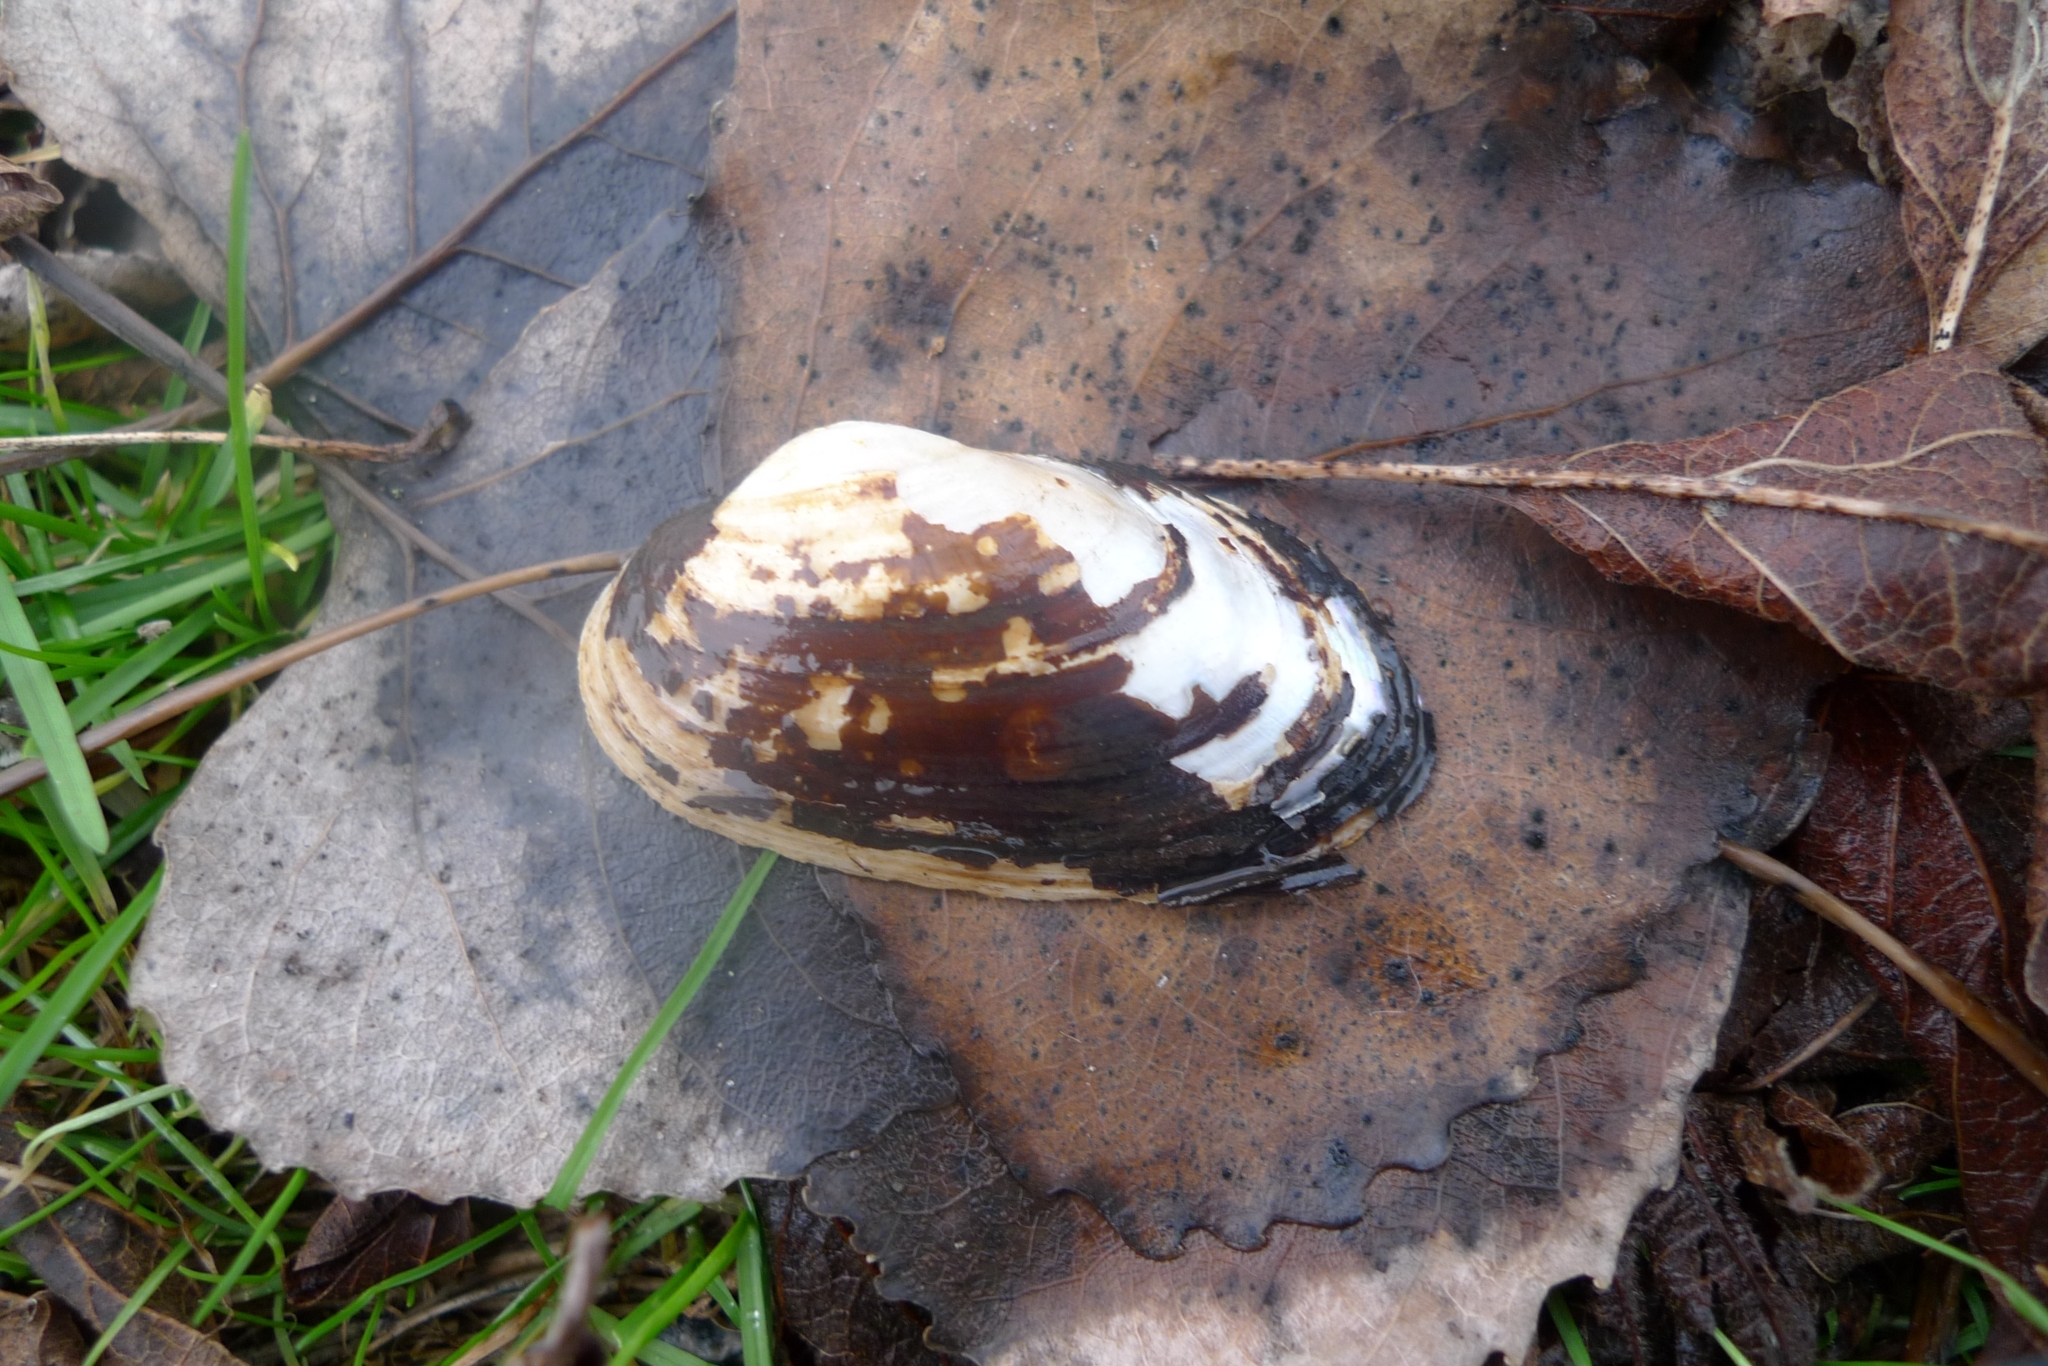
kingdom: Animalia
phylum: Mollusca
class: Bivalvia
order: Unionida
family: Unionidae
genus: Unio
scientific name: Unio crassus
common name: Thick shelled river mussel
